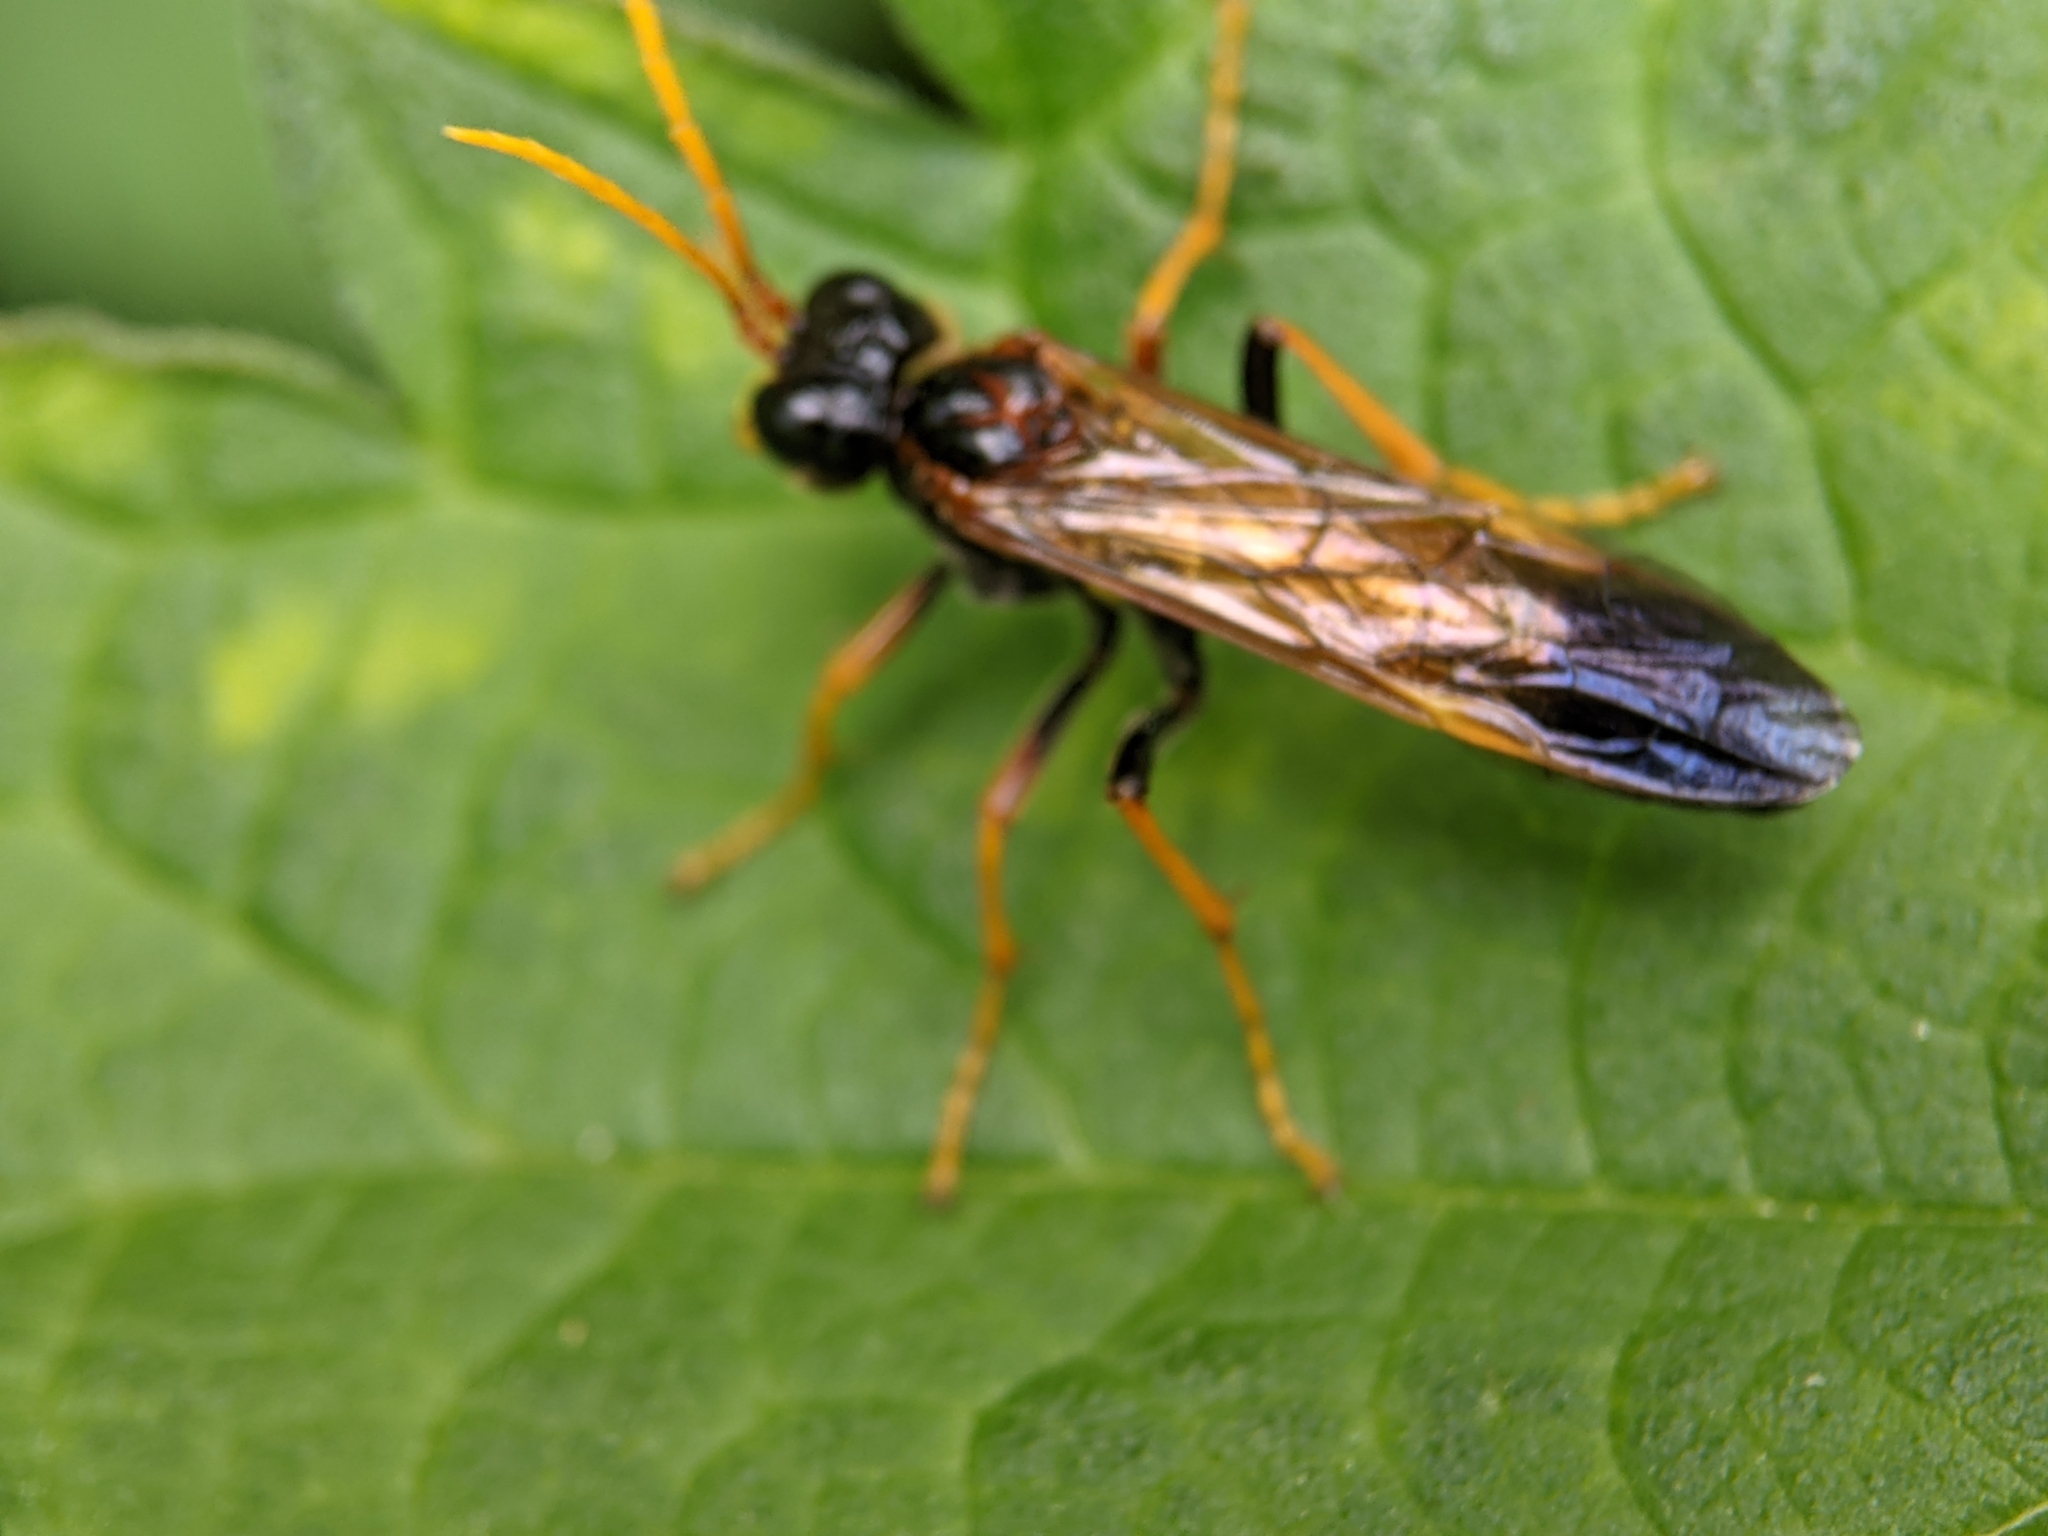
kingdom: Animalia
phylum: Arthropoda
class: Insecta
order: Hymenoptera
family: Tenthredinidae
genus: Tenthredo
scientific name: Tenthredo campestris
